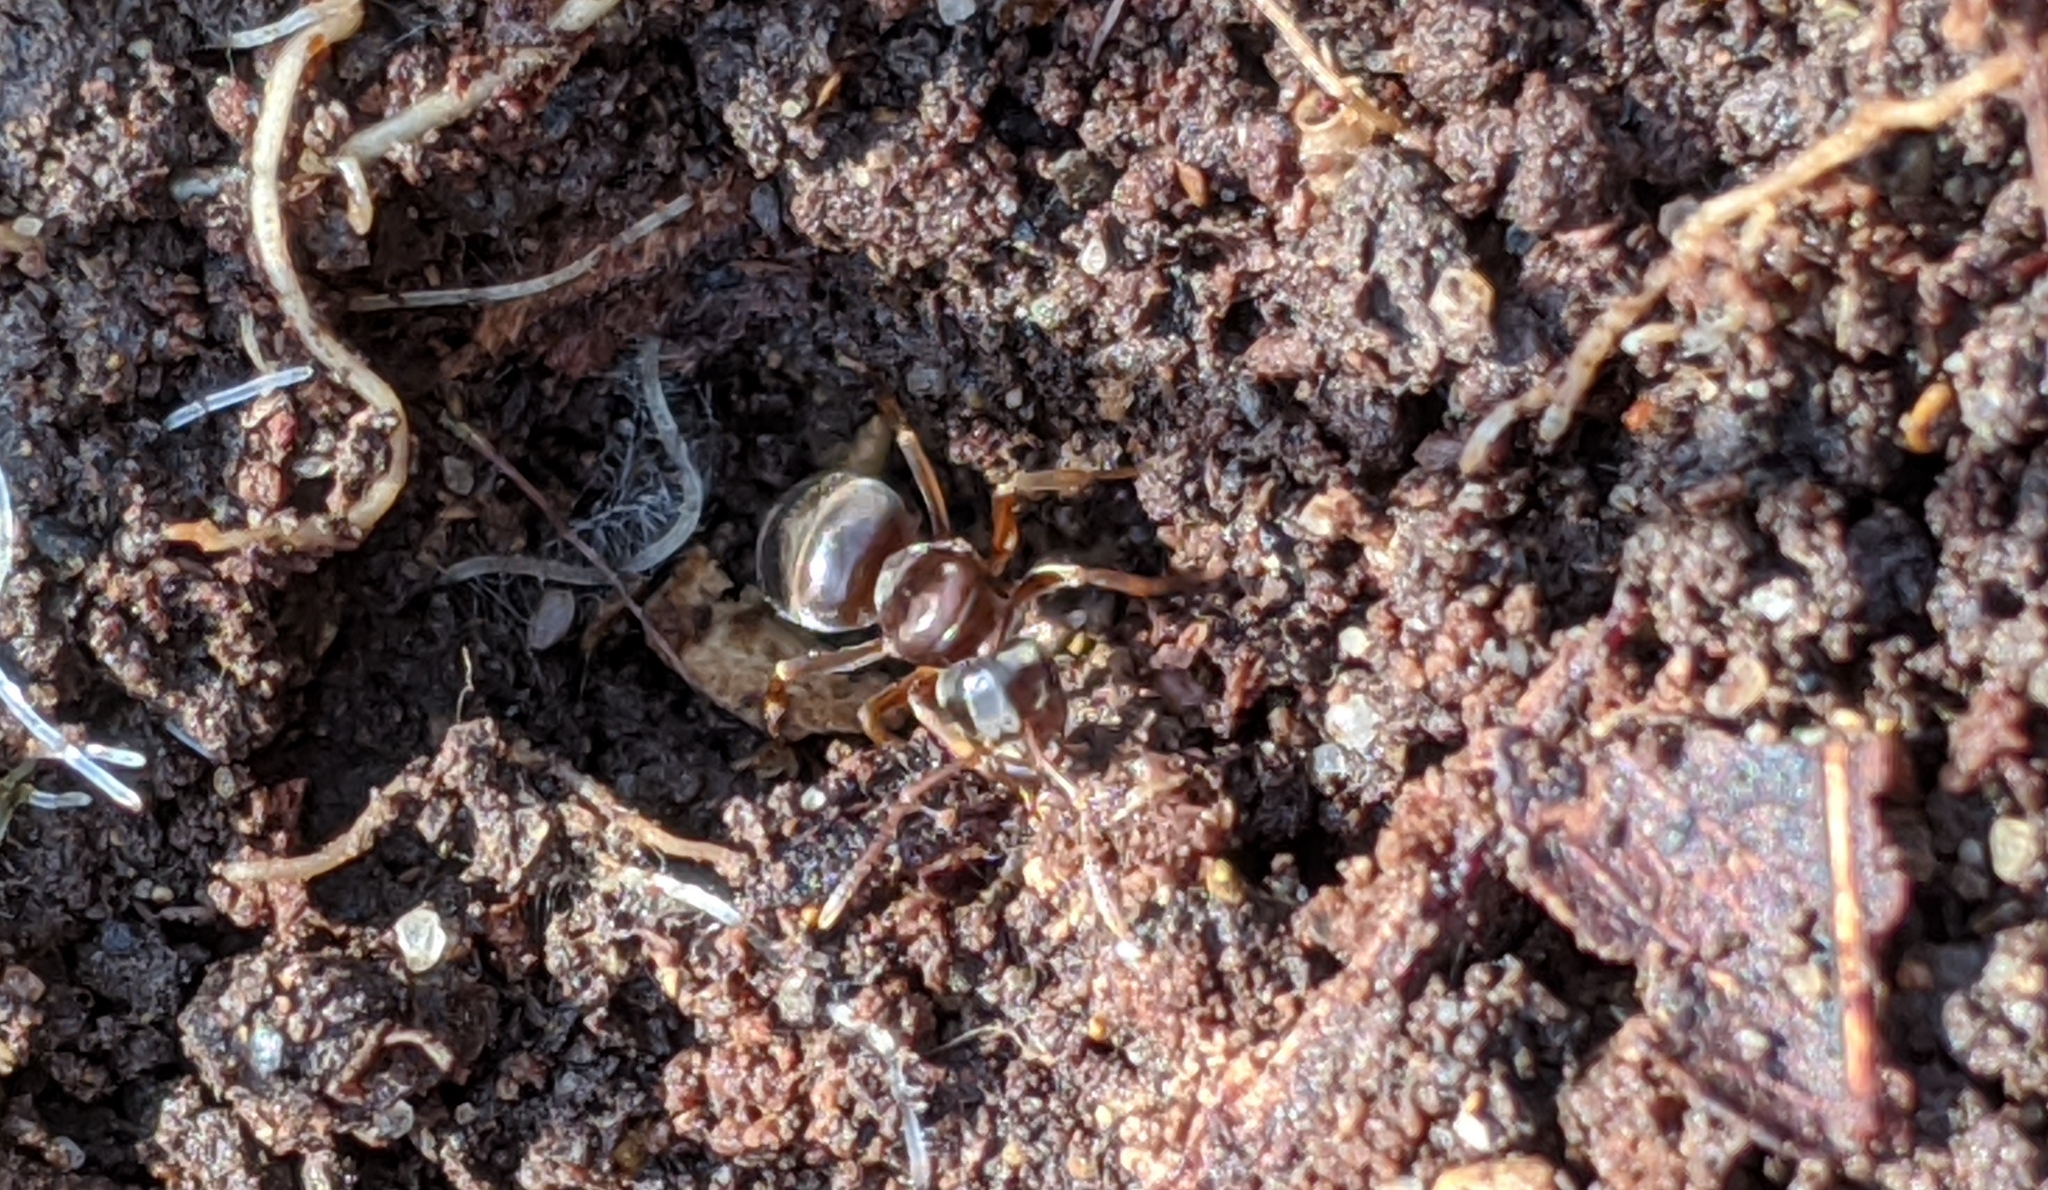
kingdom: Animalia
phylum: Arthropoda
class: Insecta
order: Hymenoptera
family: Formicidae
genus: Lasius
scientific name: Lasius aphidicola
